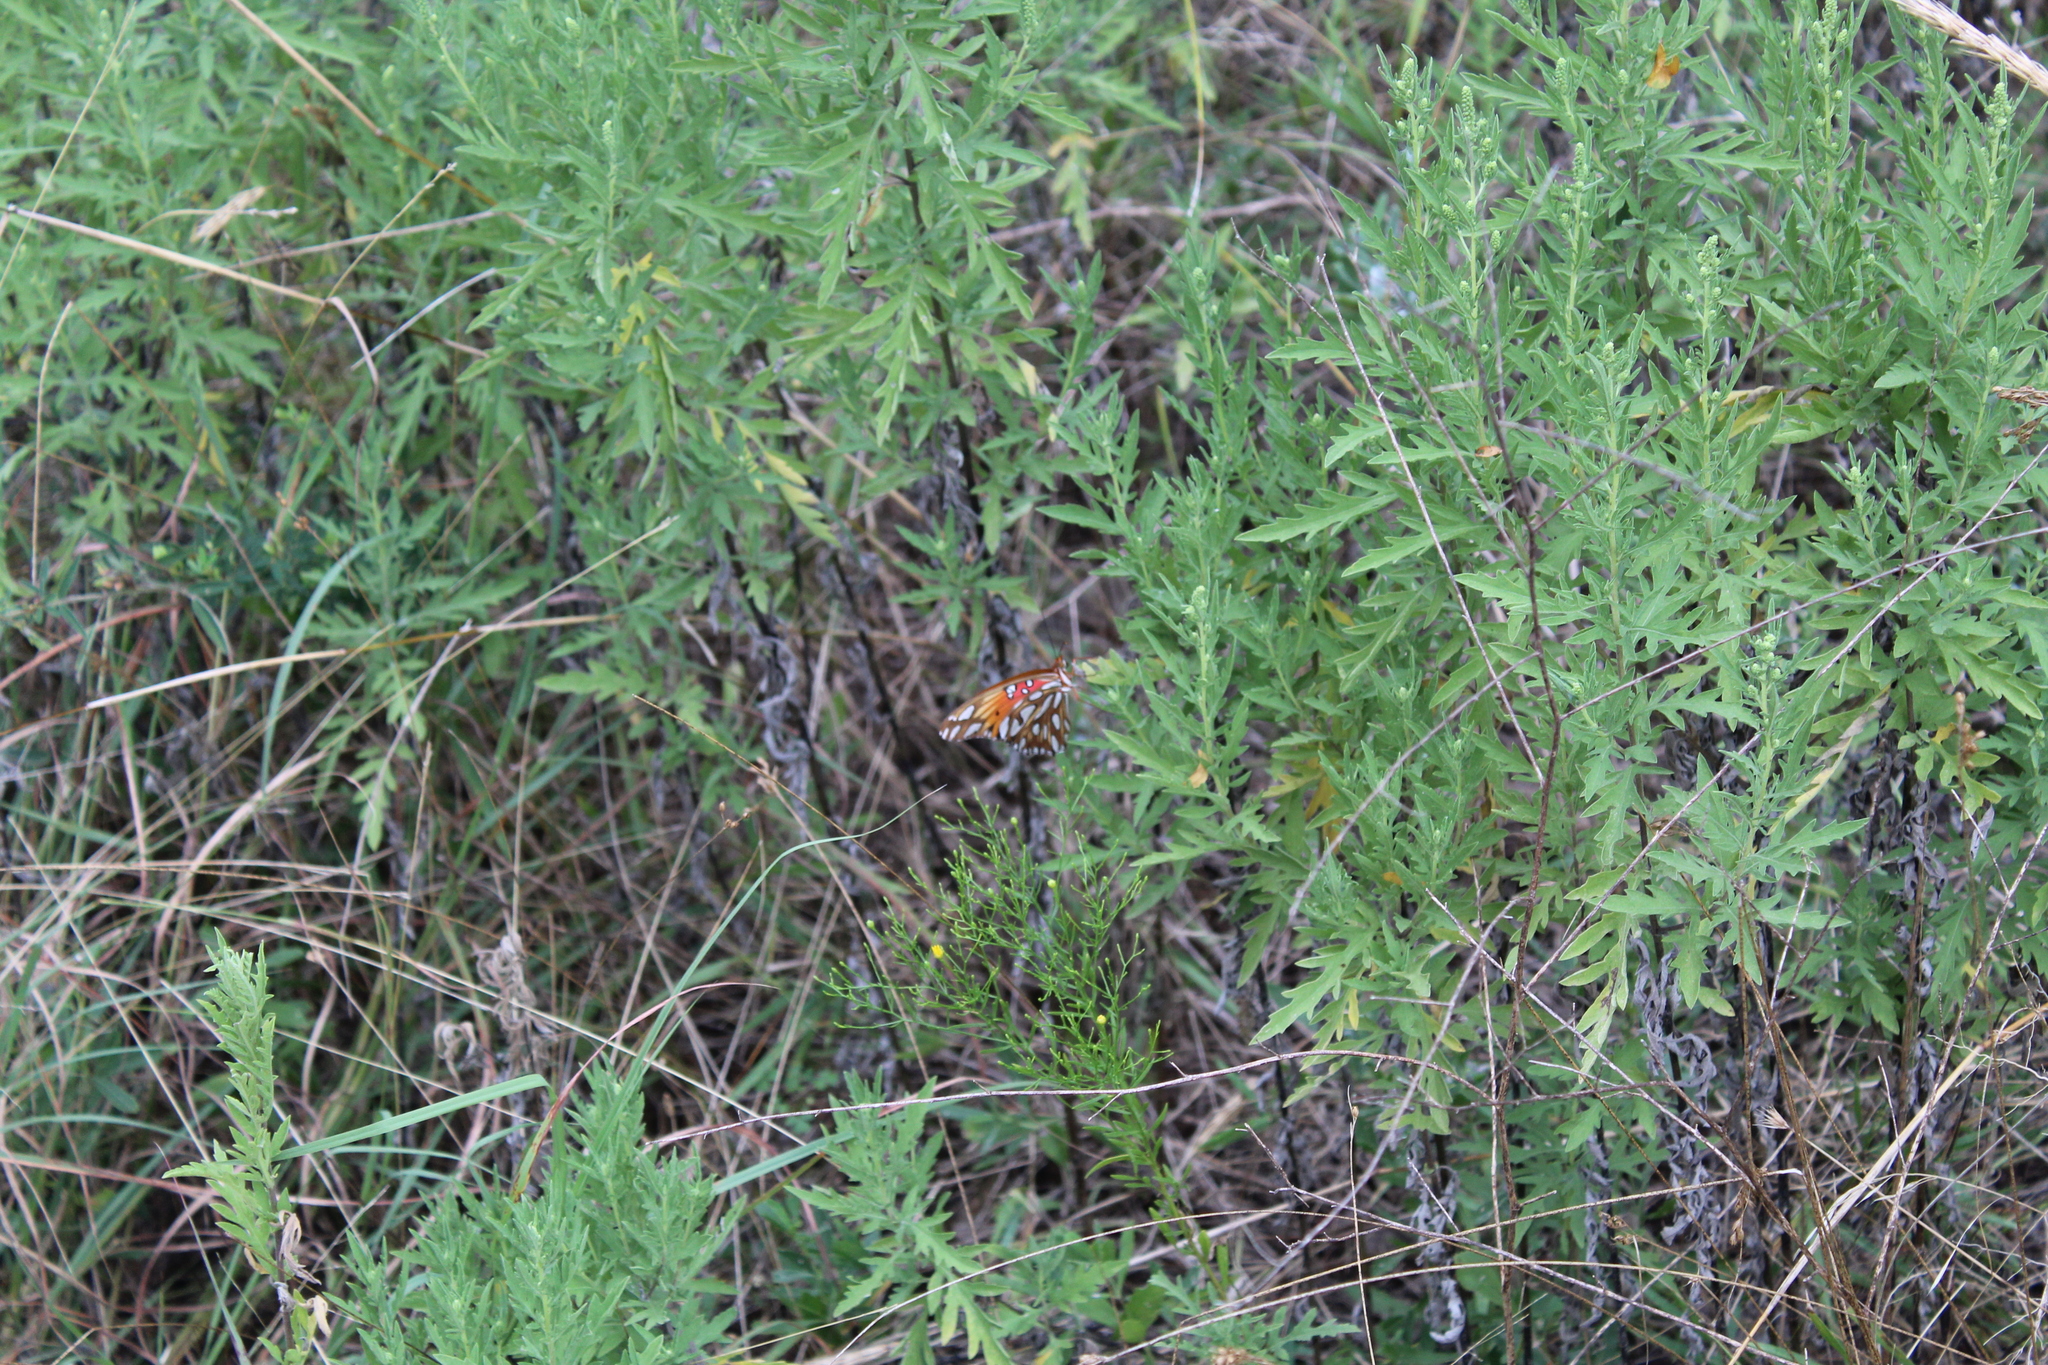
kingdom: Animalia
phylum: Arthropoda
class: Insecta
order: Lepidoptera
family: Nymphalidae
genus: Dione
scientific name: Dione vanillae
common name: Gulf fritillary
